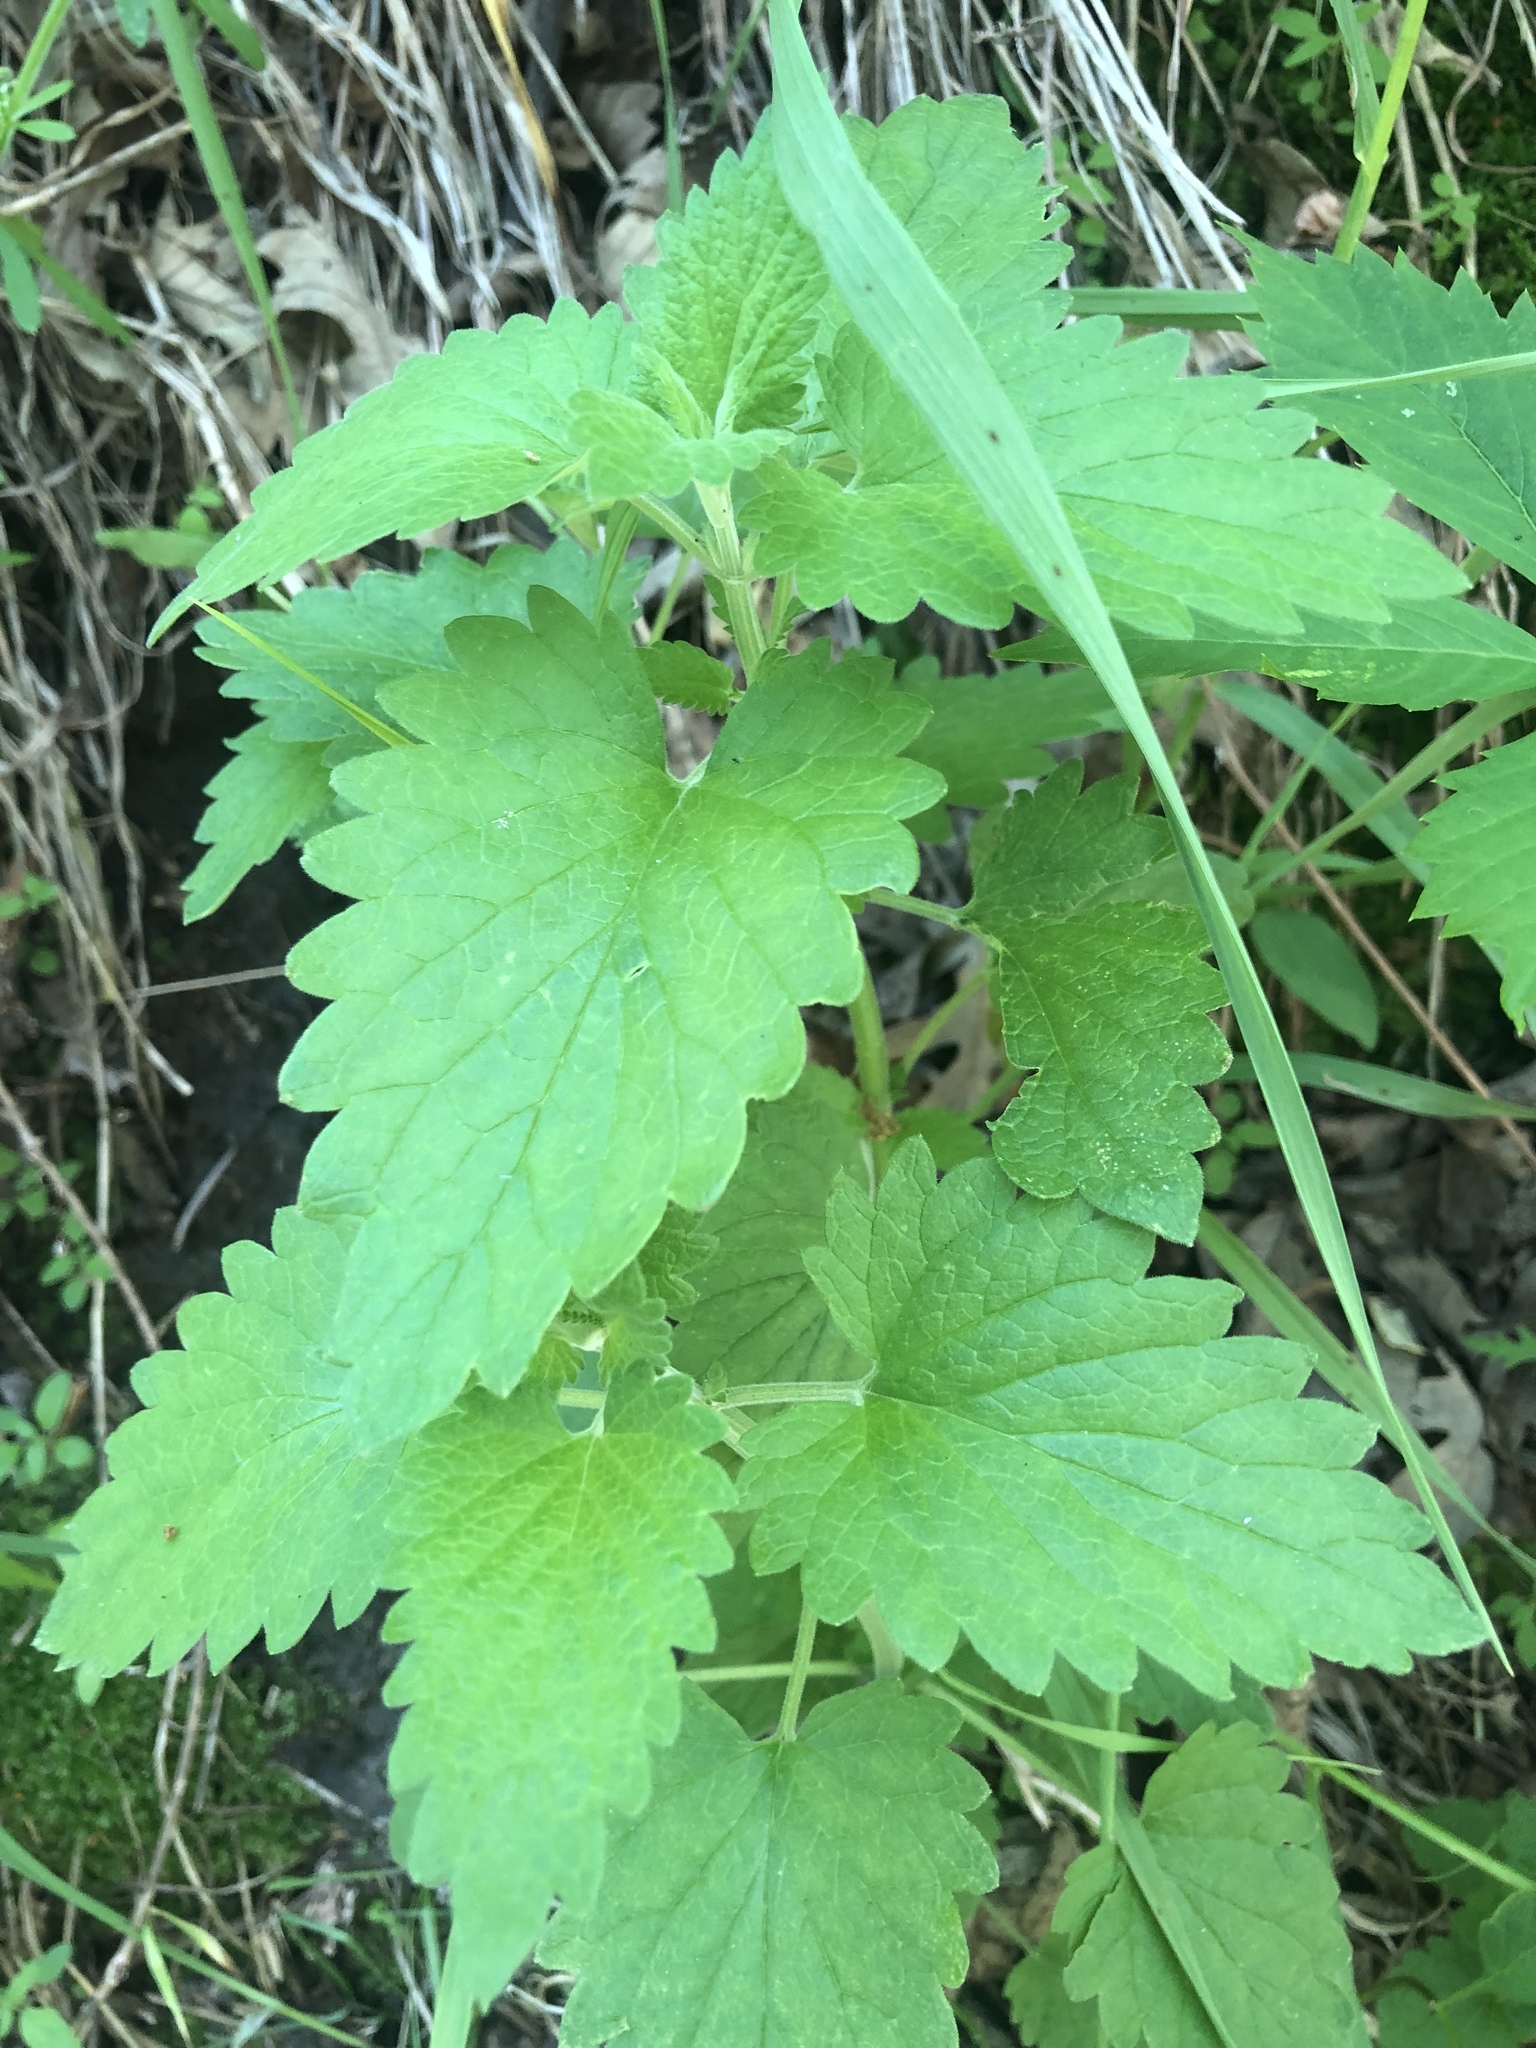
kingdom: Plantae
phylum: Tracheophyta
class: Magnoliopsida
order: Lamiales
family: Lamiaceae
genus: Nepeta
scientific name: Nepeta cataria
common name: Catnip
